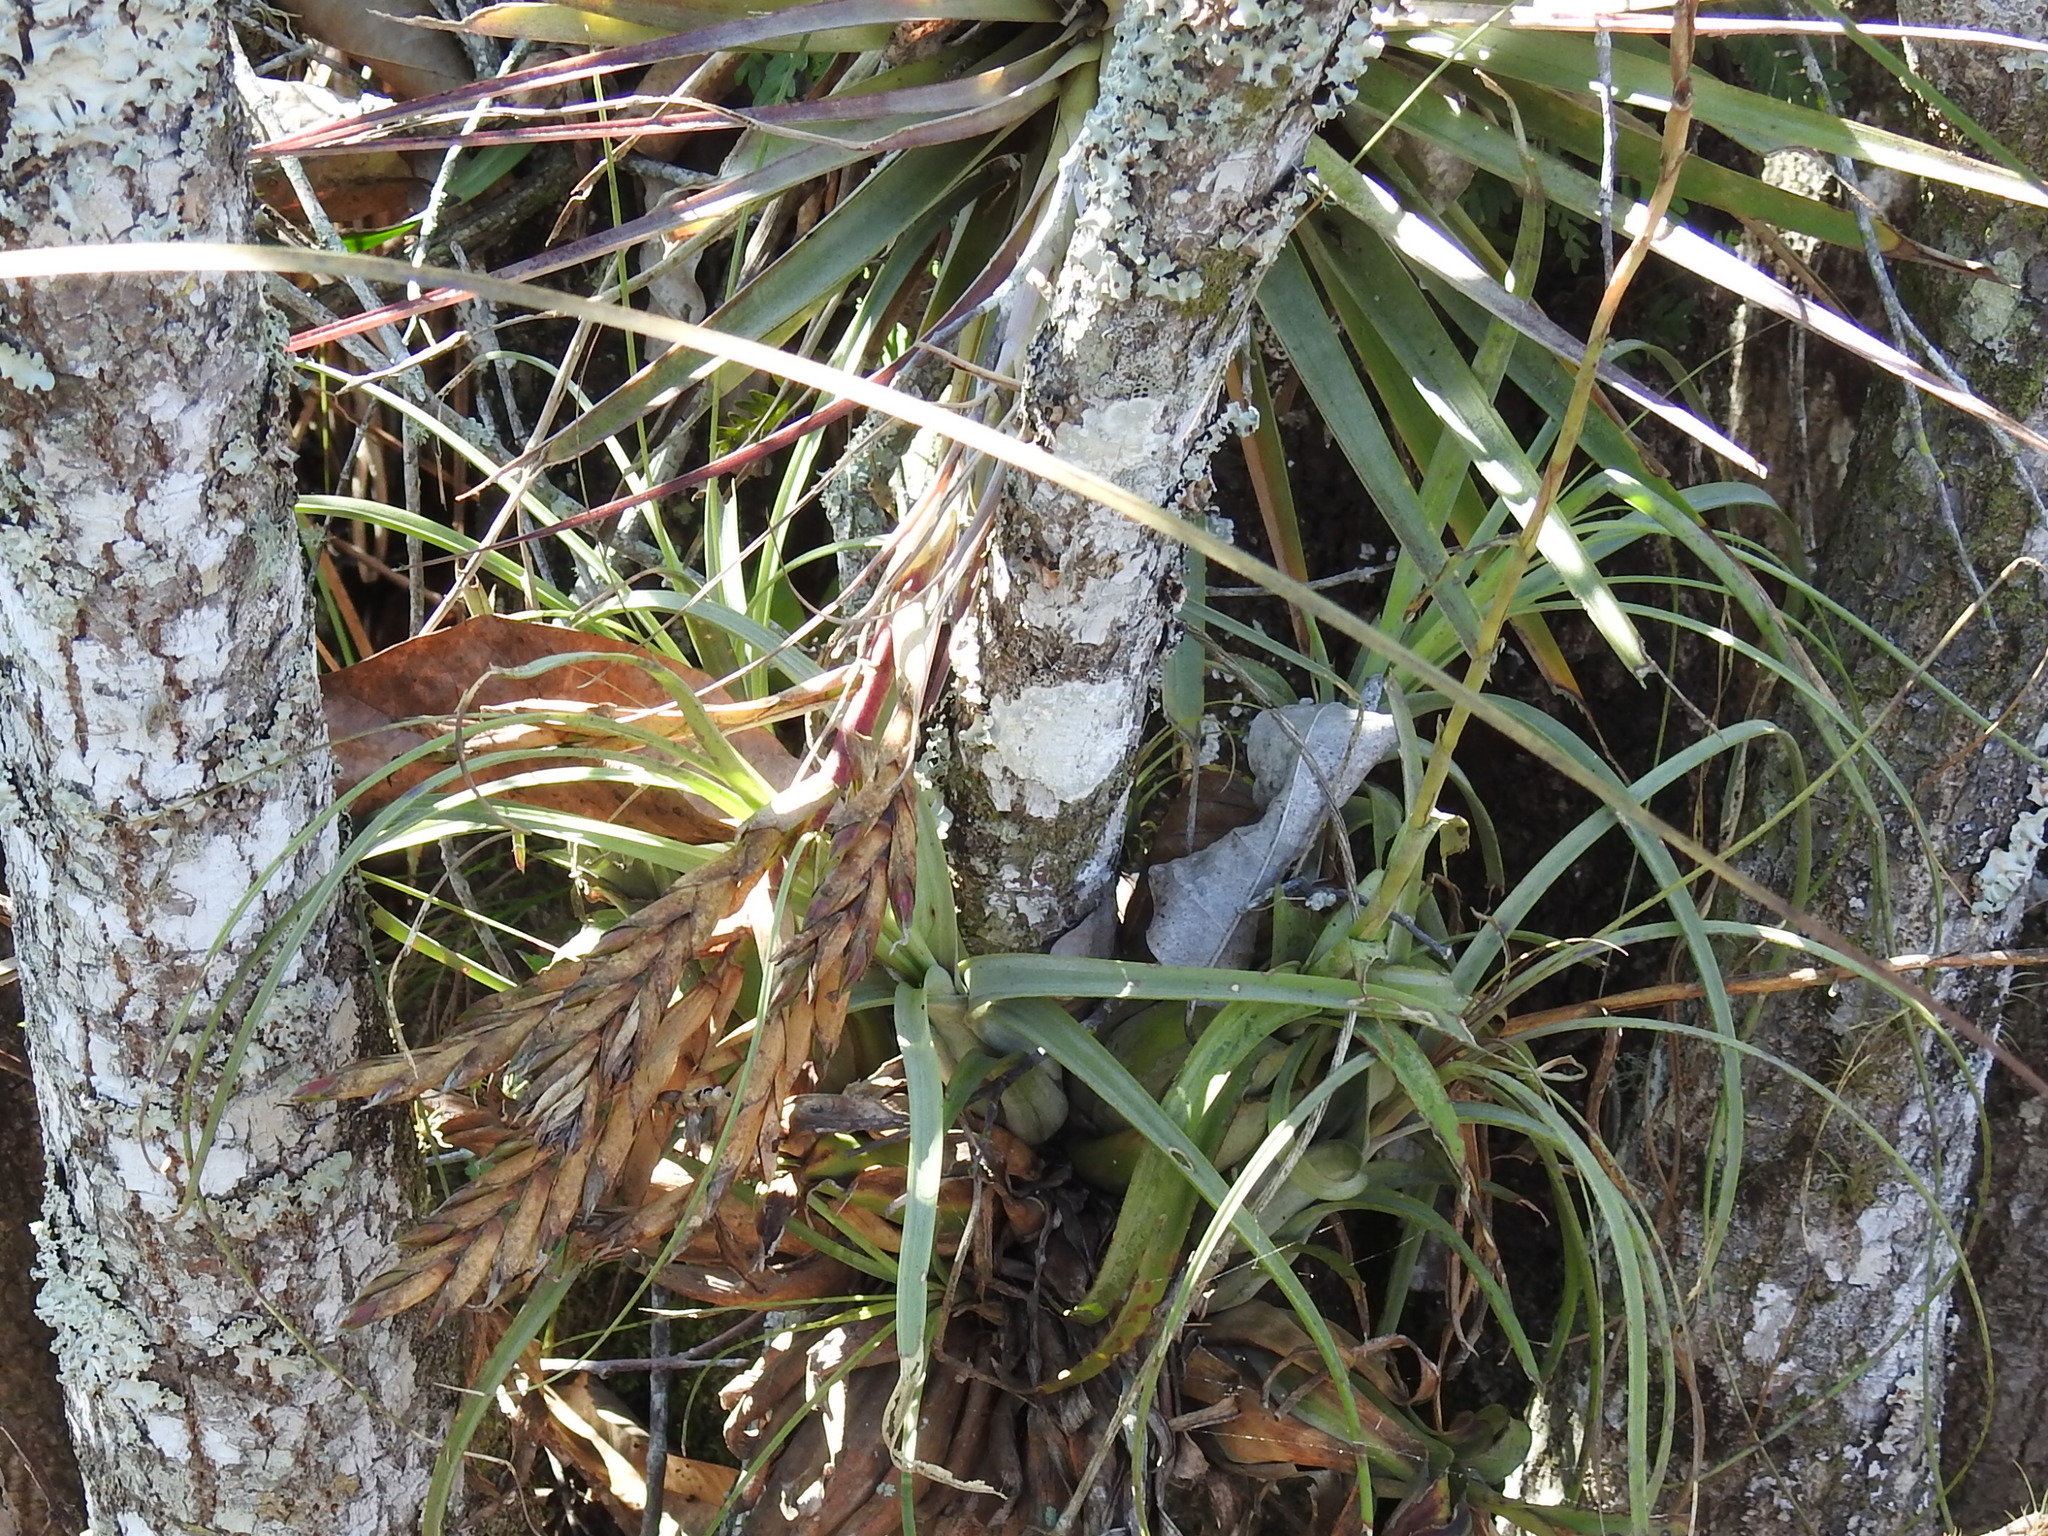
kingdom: Plantae
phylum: Tracheophyta
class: Liliopsida
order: Poales
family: Bromeliaceae
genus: Tillandsia
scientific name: Tillandsia fasciculata
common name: Giant airplant
